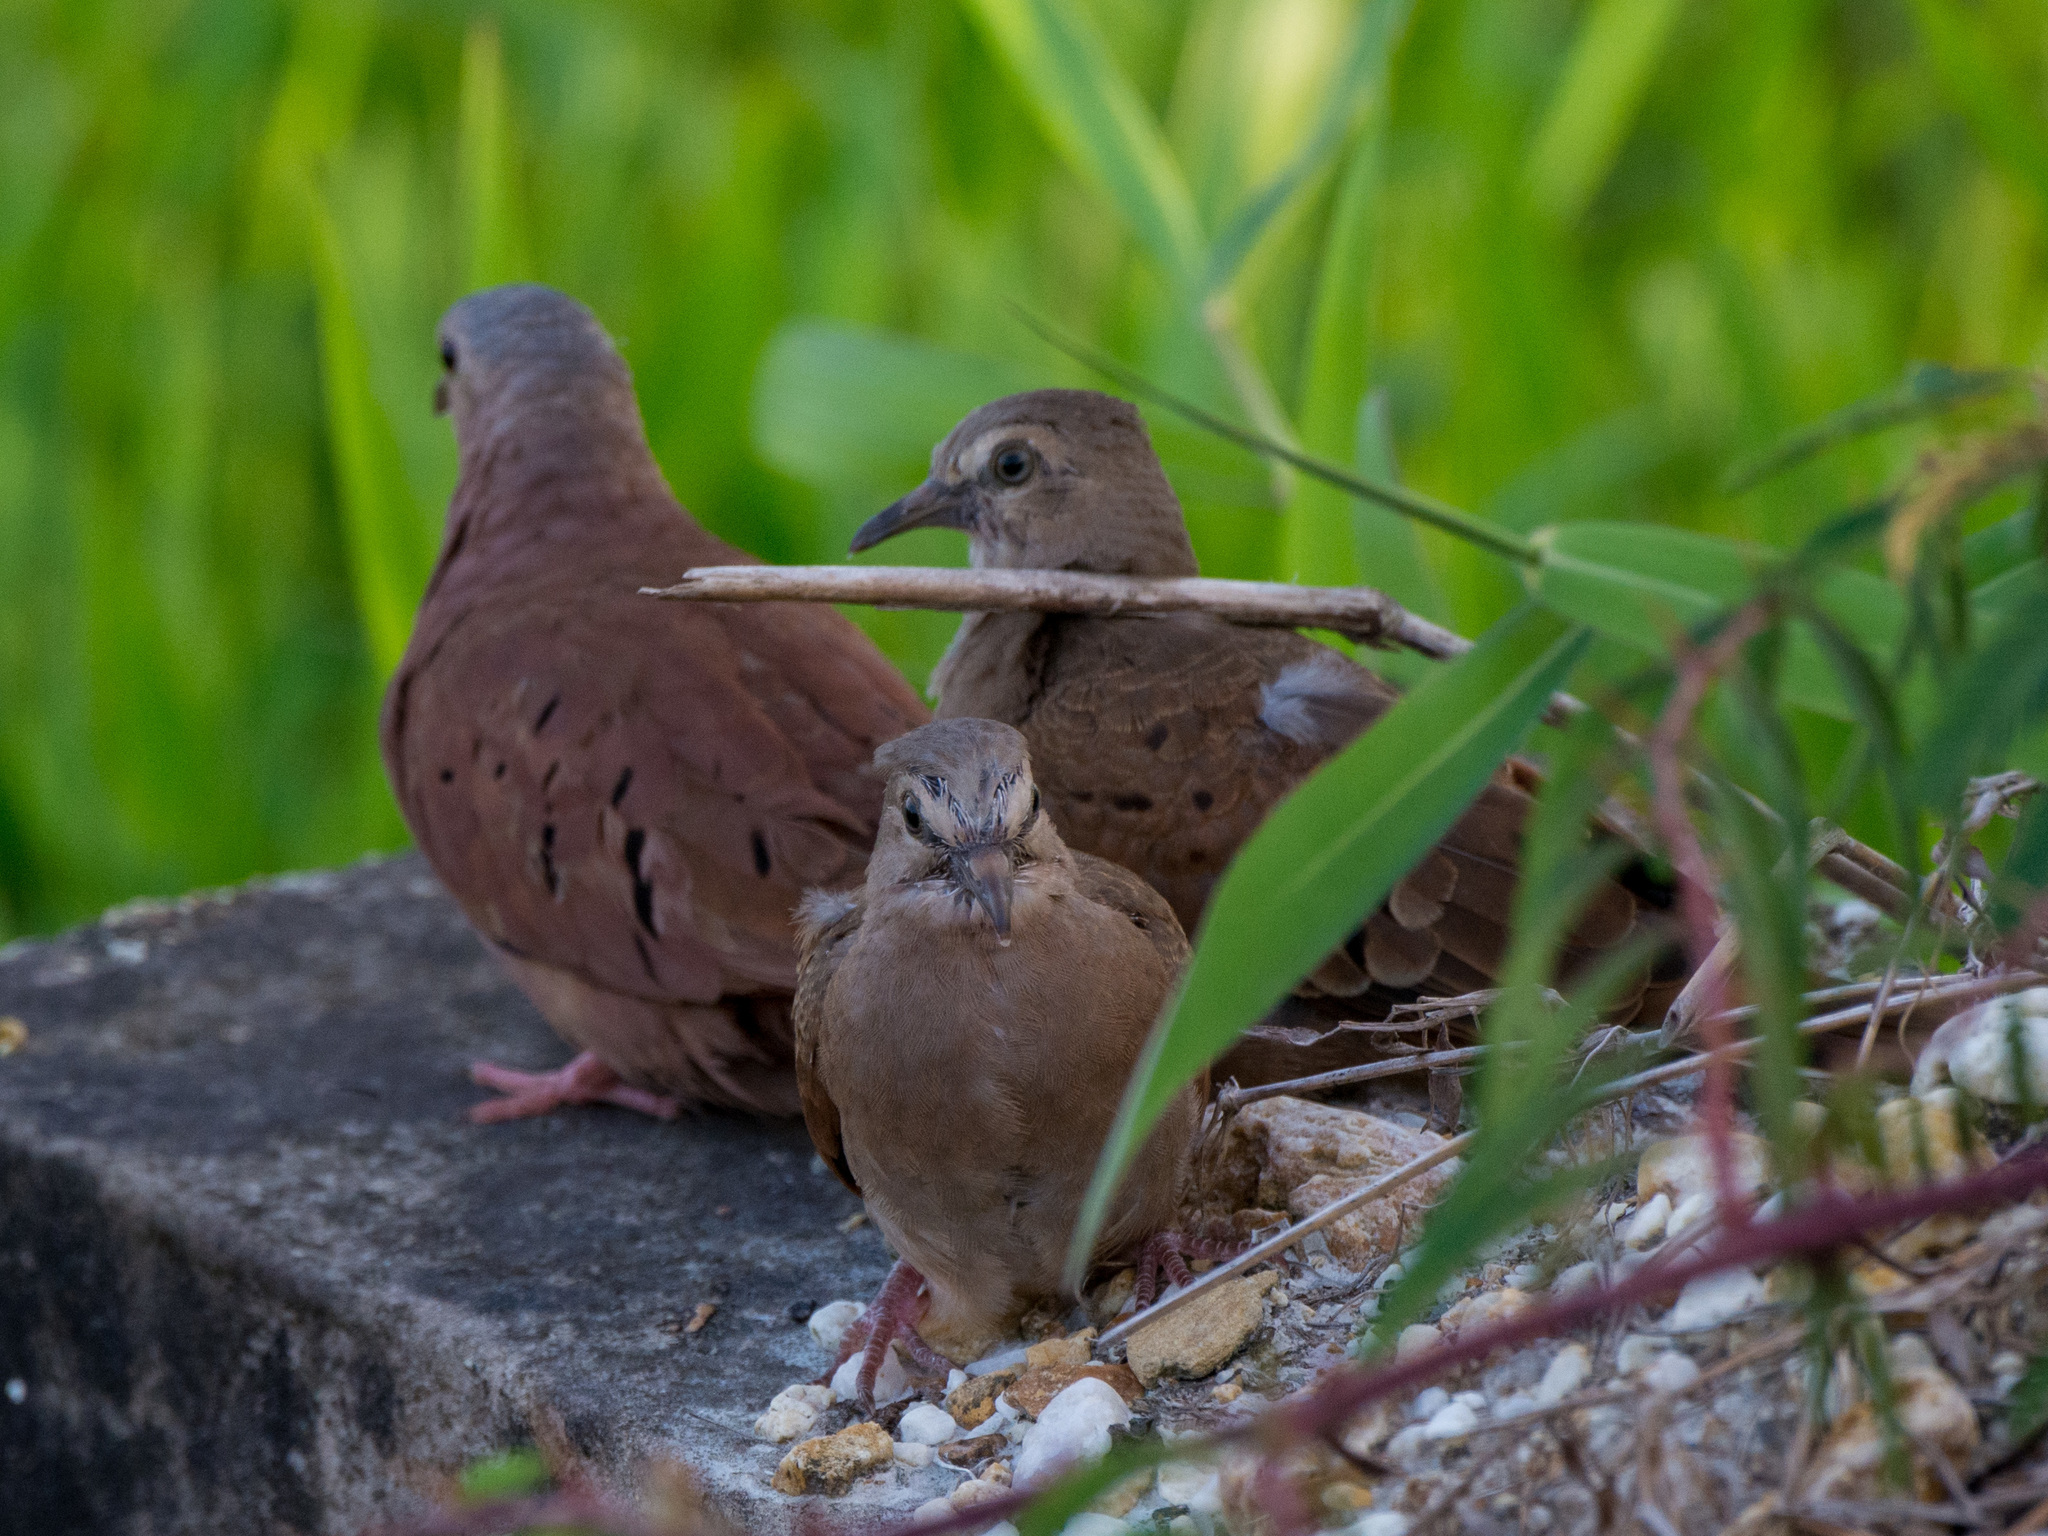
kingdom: Animalia
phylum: Chordata
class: Aves
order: Columbiformes
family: Columbidae
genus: Columbina
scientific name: Columbina talpacoti
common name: Ruddy ground dove
